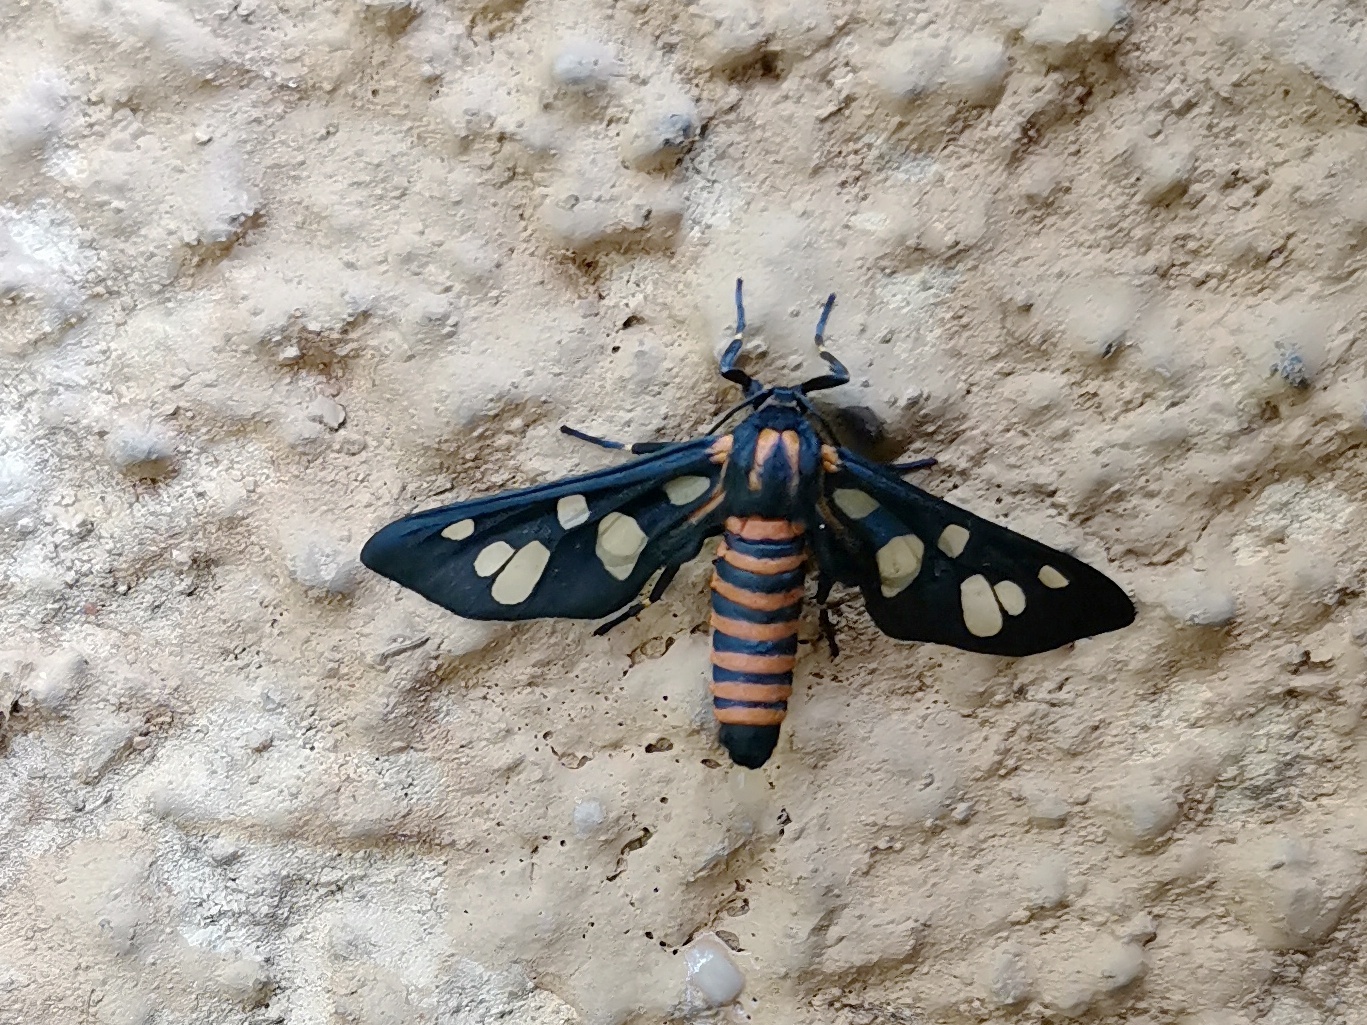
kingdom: Animalia
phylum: Arthropoda
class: Insecta
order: Lepidoptera
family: Erebidae
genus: Amata
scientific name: Amata passalis
